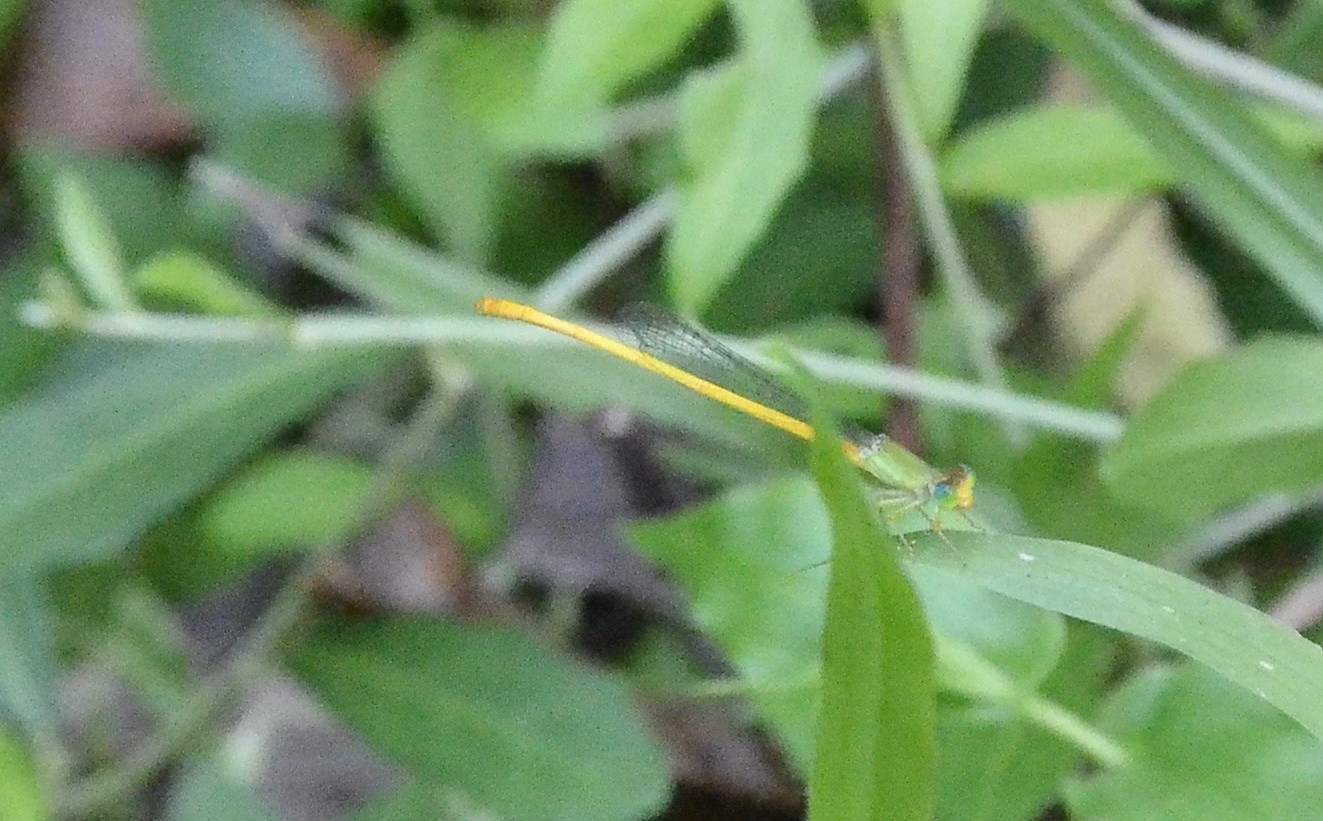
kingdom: Animalia
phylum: Arthropoda
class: Insecta
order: Odonata
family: Coenagrionidae
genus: Ceriagrion
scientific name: Ceriagrion coromandelianum
